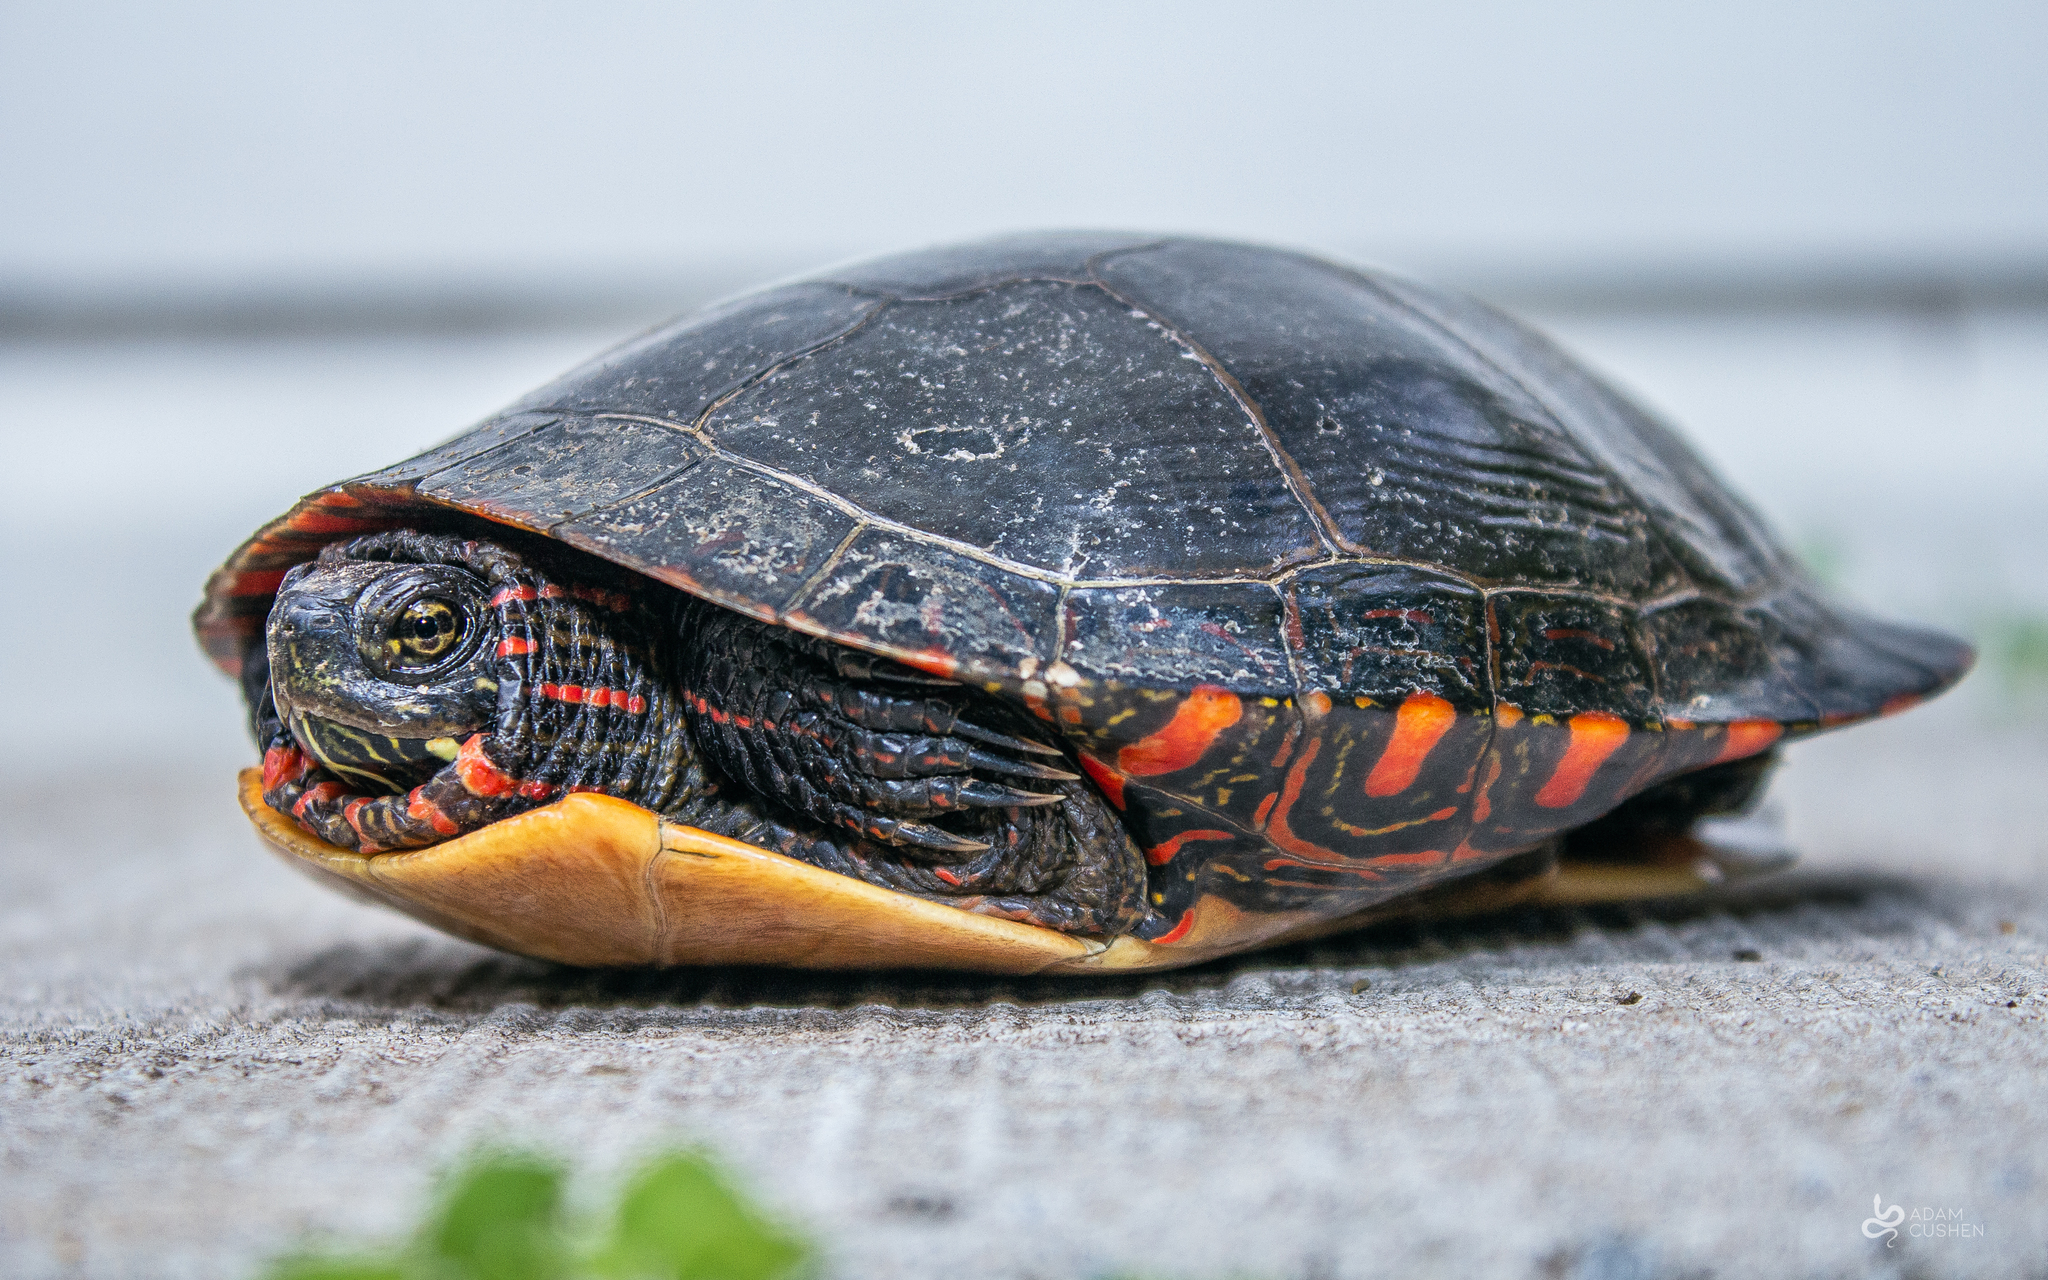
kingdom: Animalia
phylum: Chordata
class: Testudines
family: Emydidae
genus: Chrysemys
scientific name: Chrysemys picta
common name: Painted turtle
